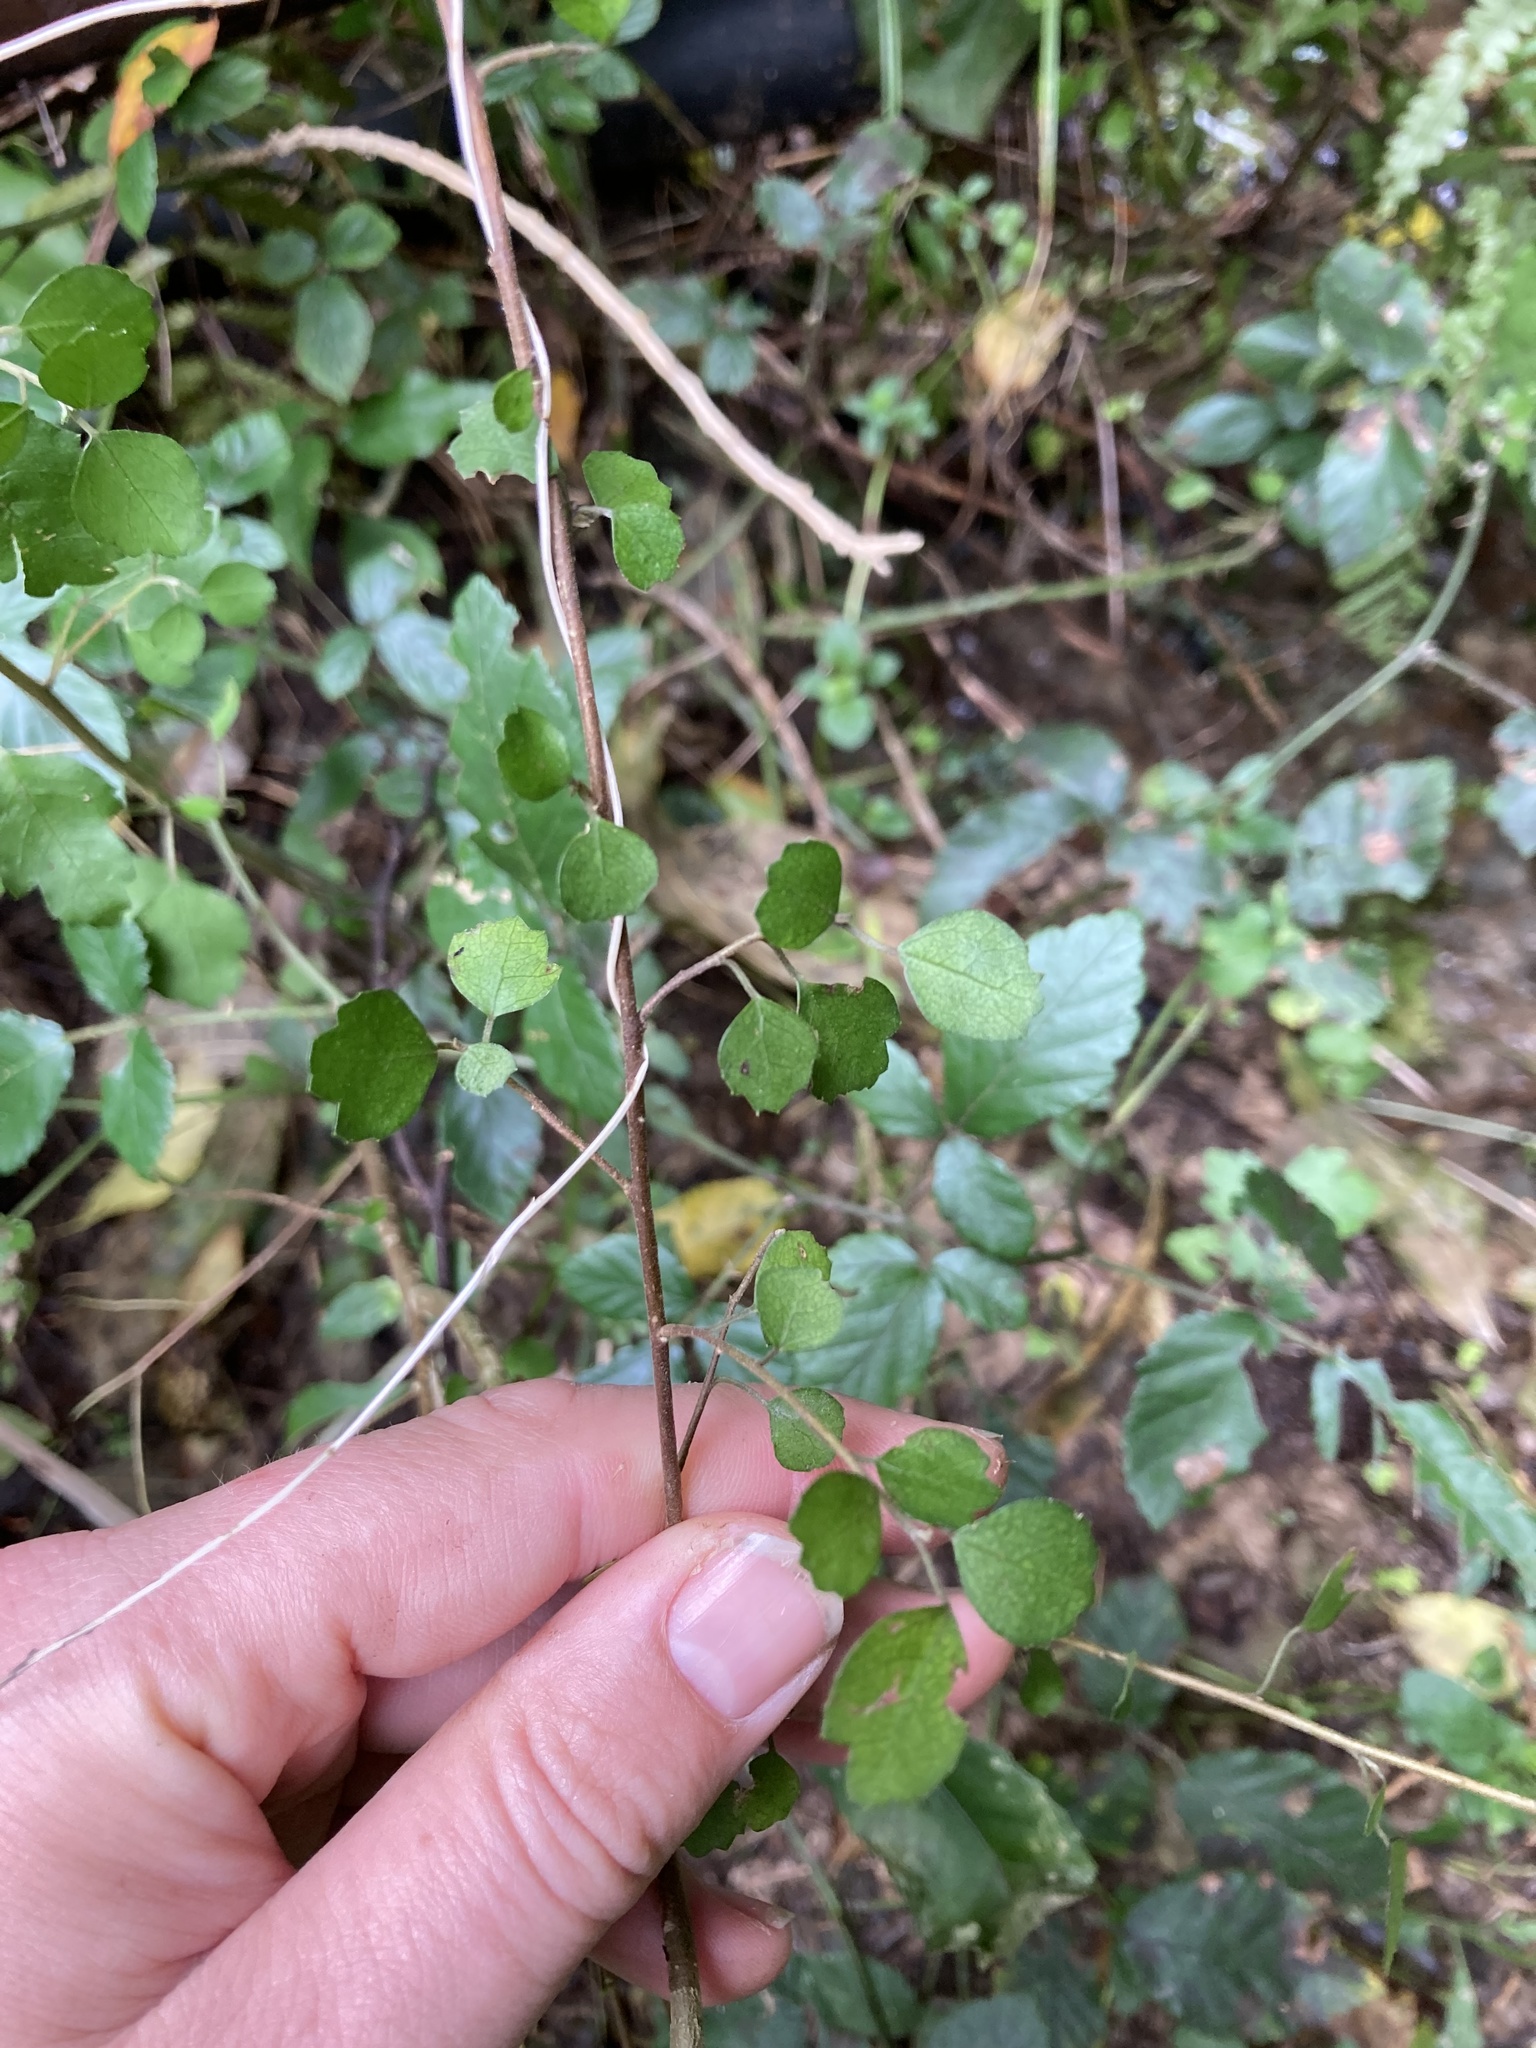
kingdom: Plantae
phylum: Tracheophyta
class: Magnoliopsida
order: Malvales
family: Malvaceae
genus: Hoheria
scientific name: Hoheria sexstylosa
